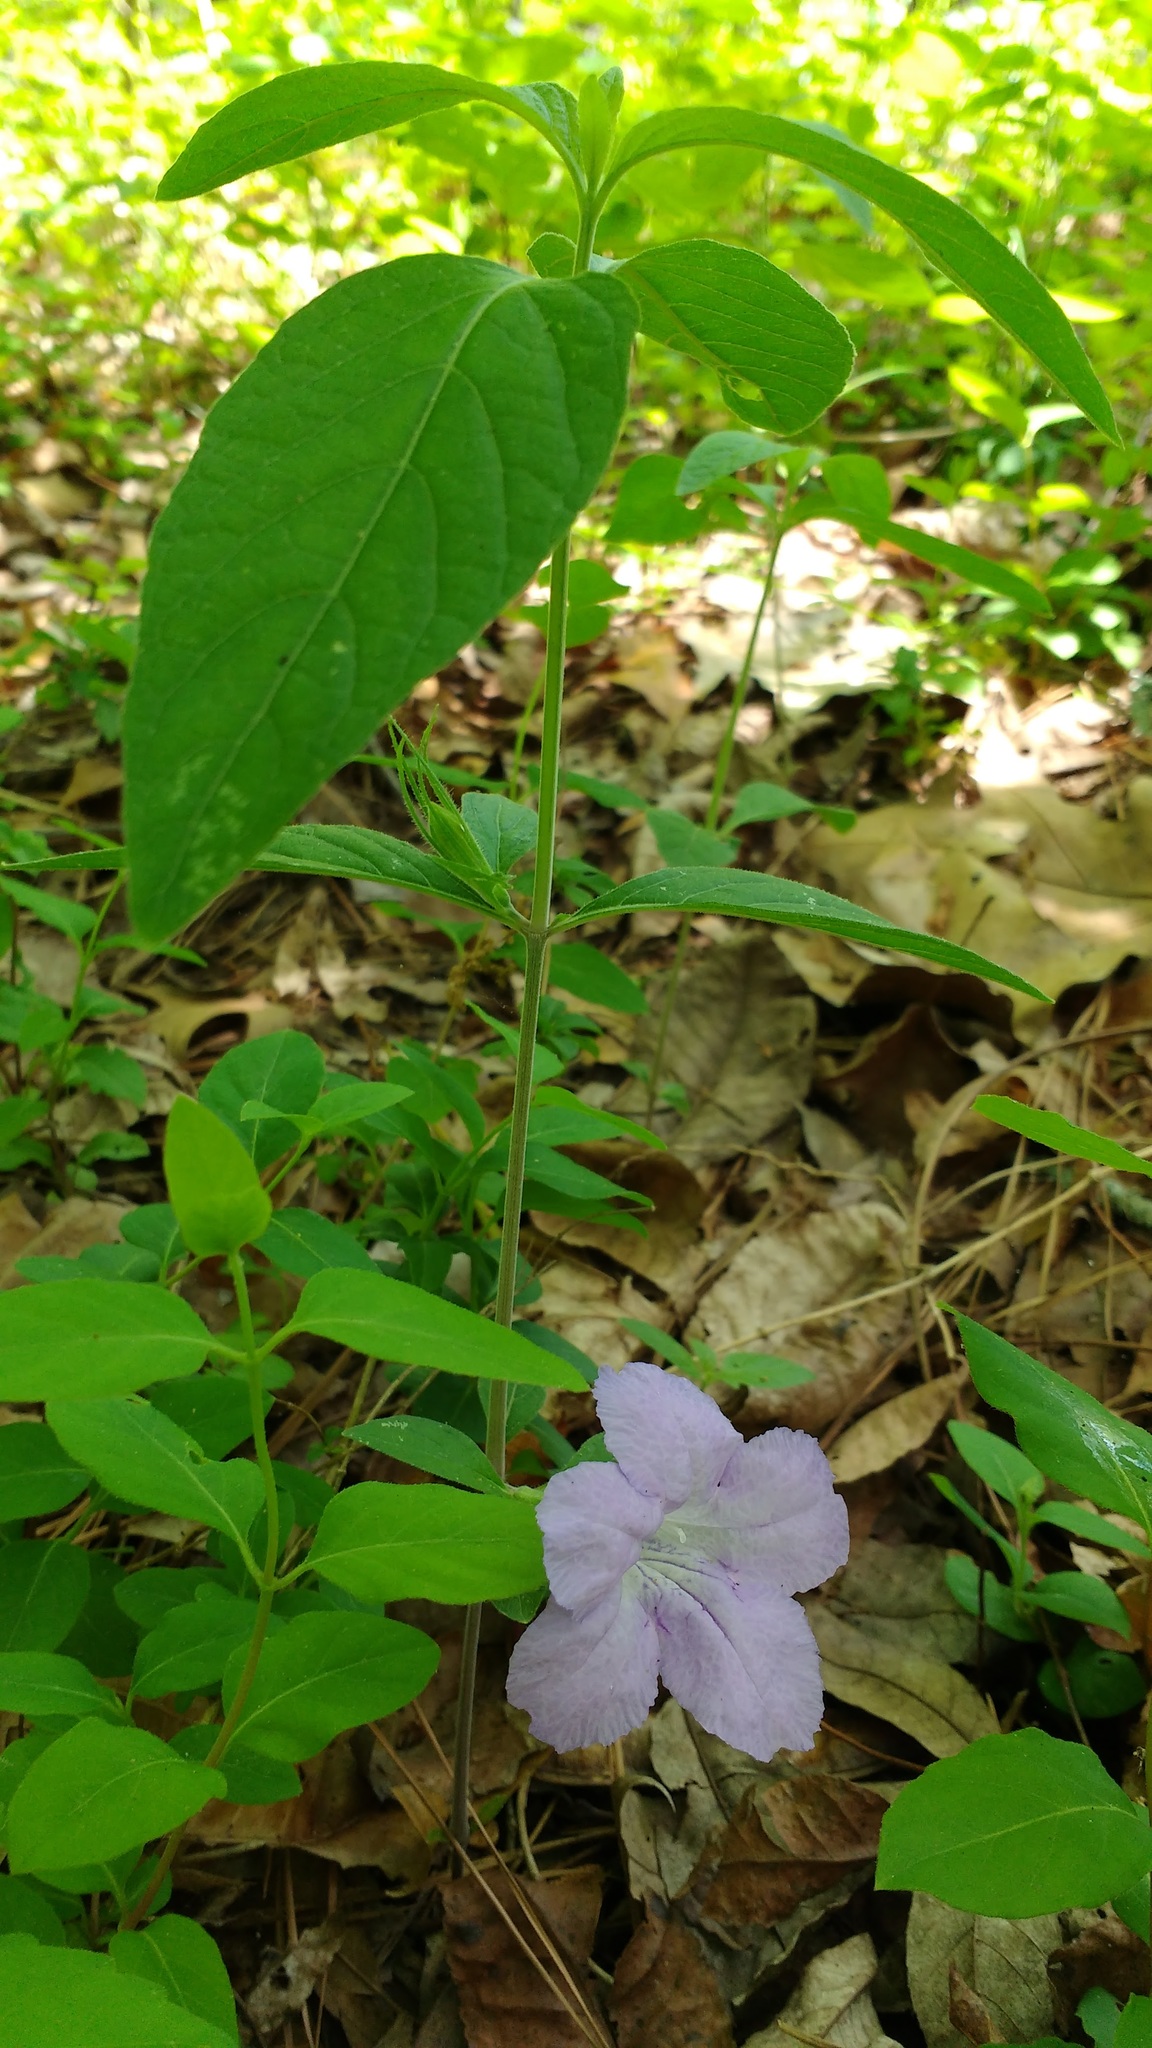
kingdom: Plantae
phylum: Tracheophyta
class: Magnoliopsida
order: Lamiales
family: Acanthaceae
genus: Ruellia
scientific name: Ruellia purshiana
